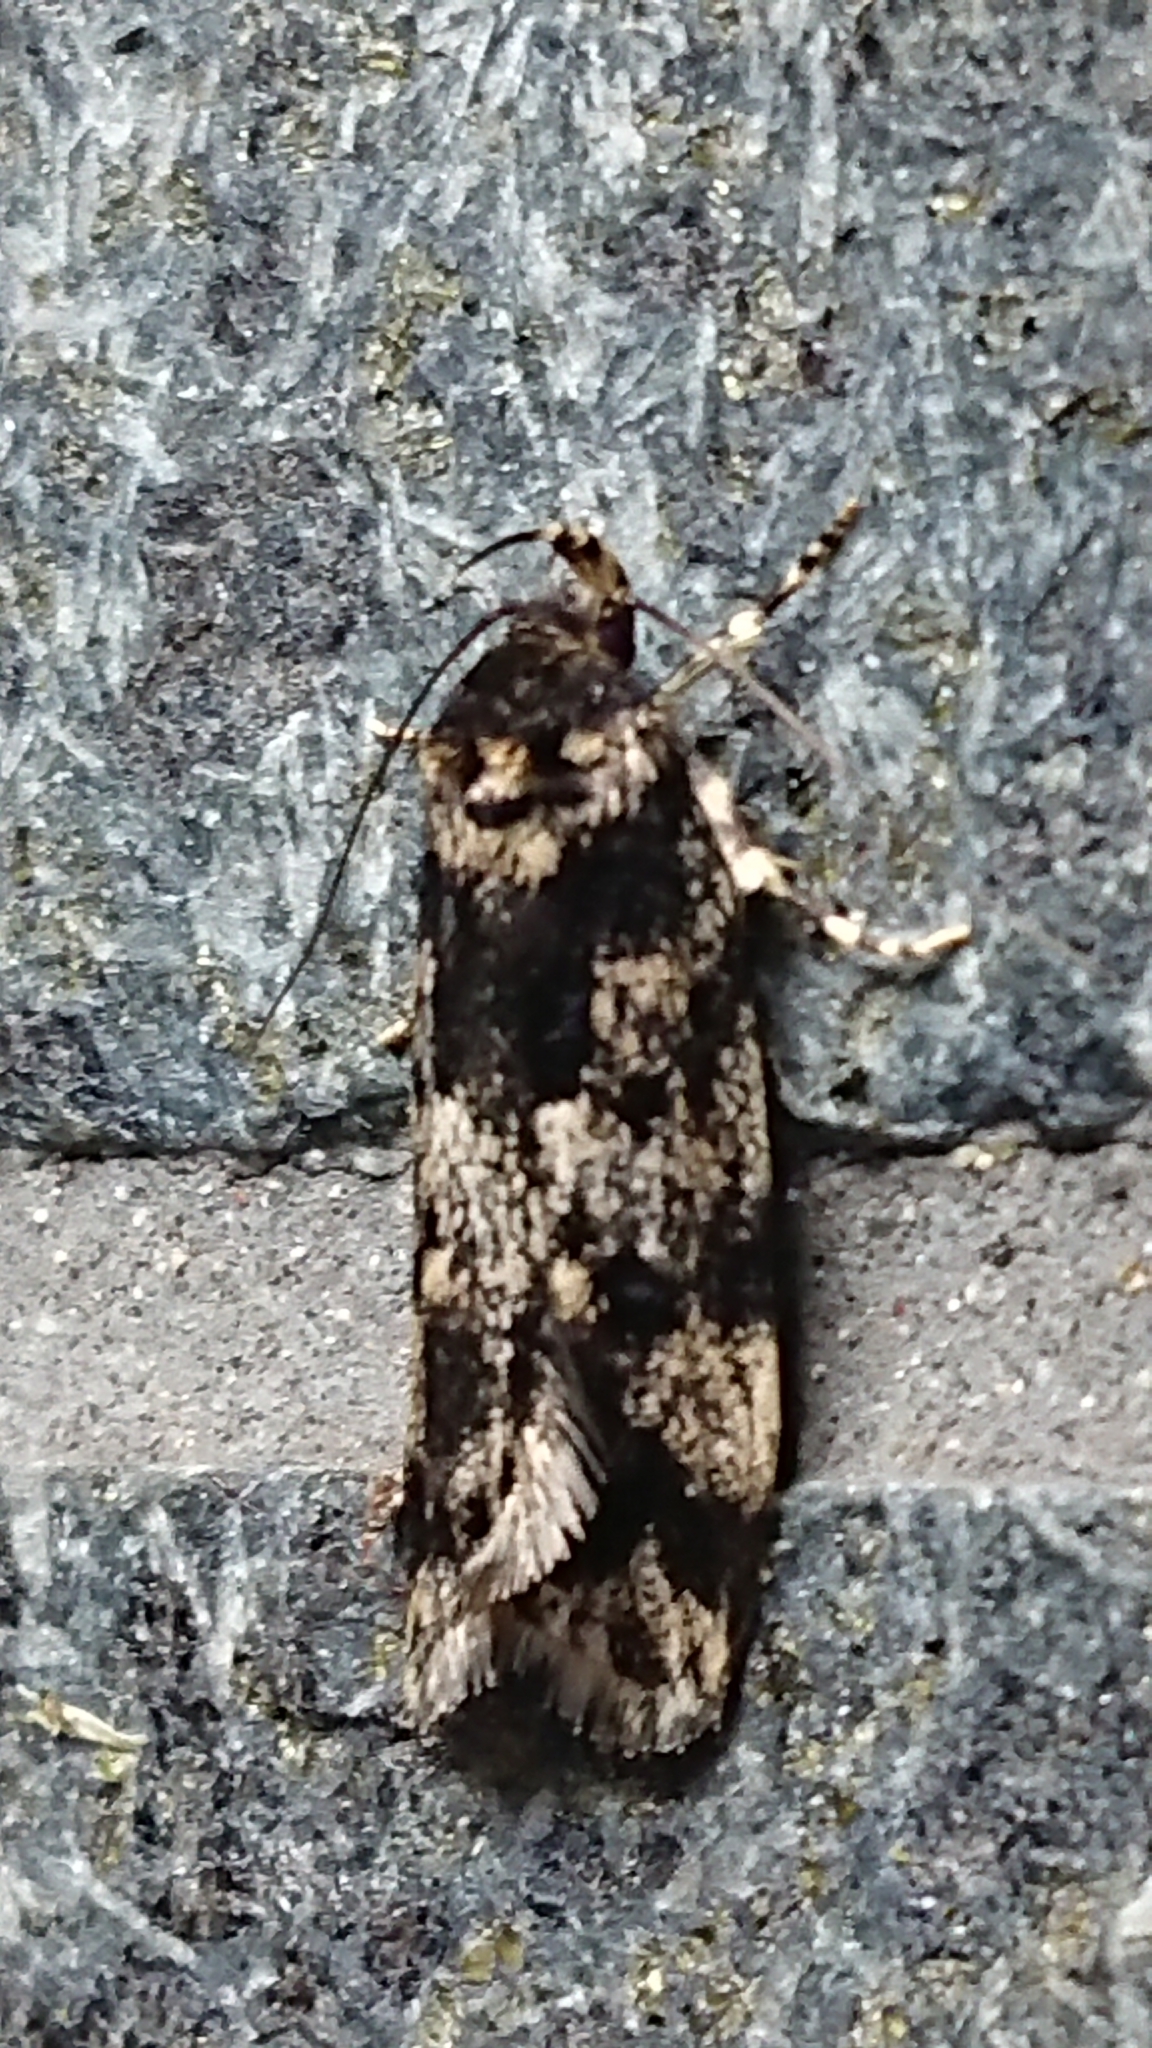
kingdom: Animalia
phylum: Arthropoda
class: Insecta
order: Lepidoptera
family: Oecophoridae
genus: Barea
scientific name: Barea codrella
